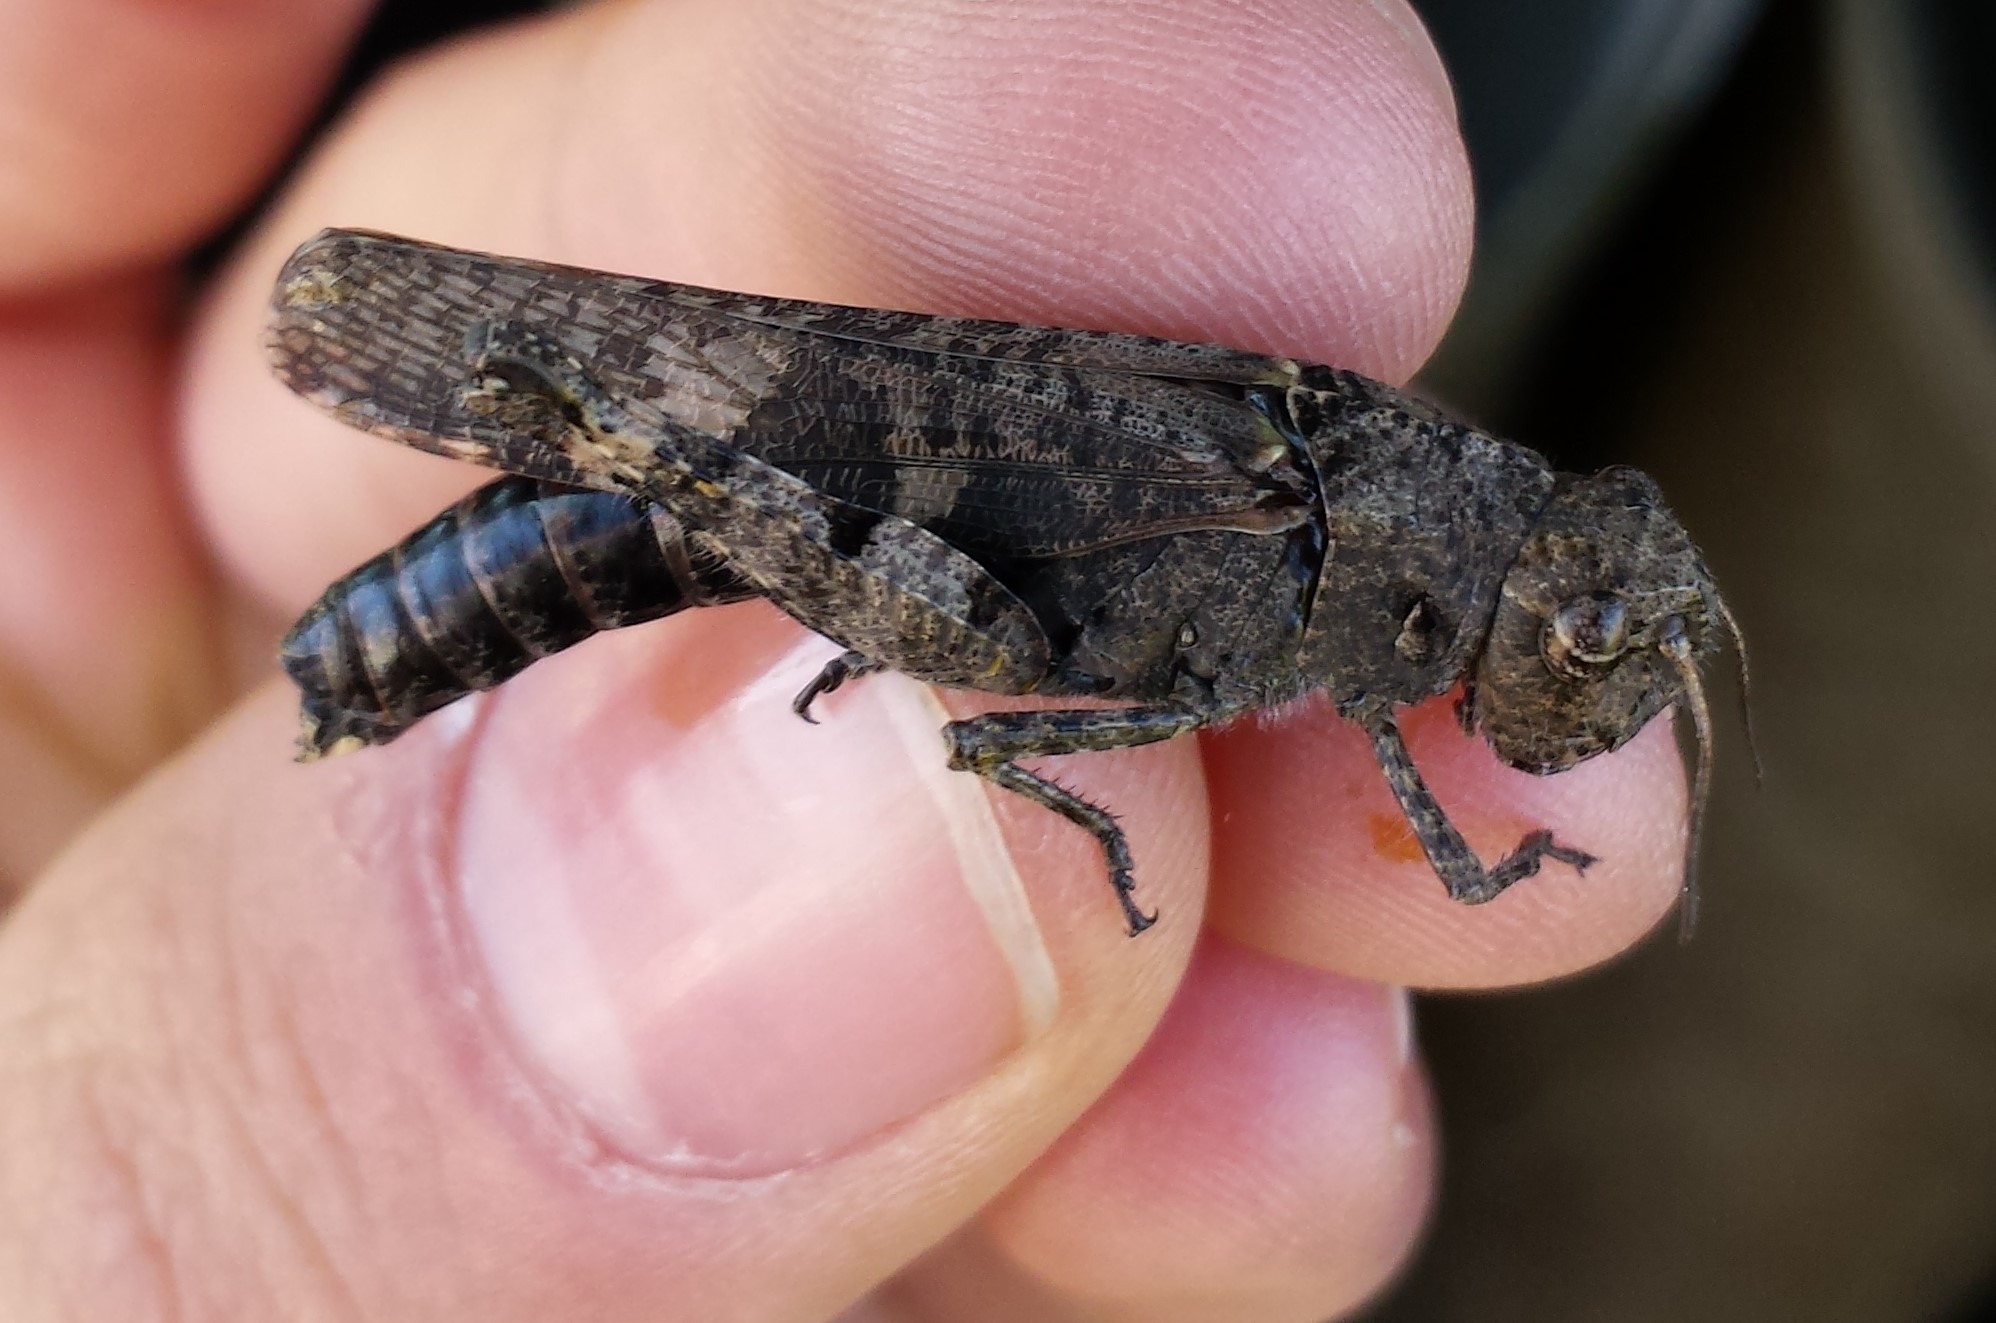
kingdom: Animalia
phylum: Arthropoda
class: Insecta
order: Orthoptera
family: Acrididae
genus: Encoptolophus
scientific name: Encoptolophus sordidus
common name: Dusky grasshopper
